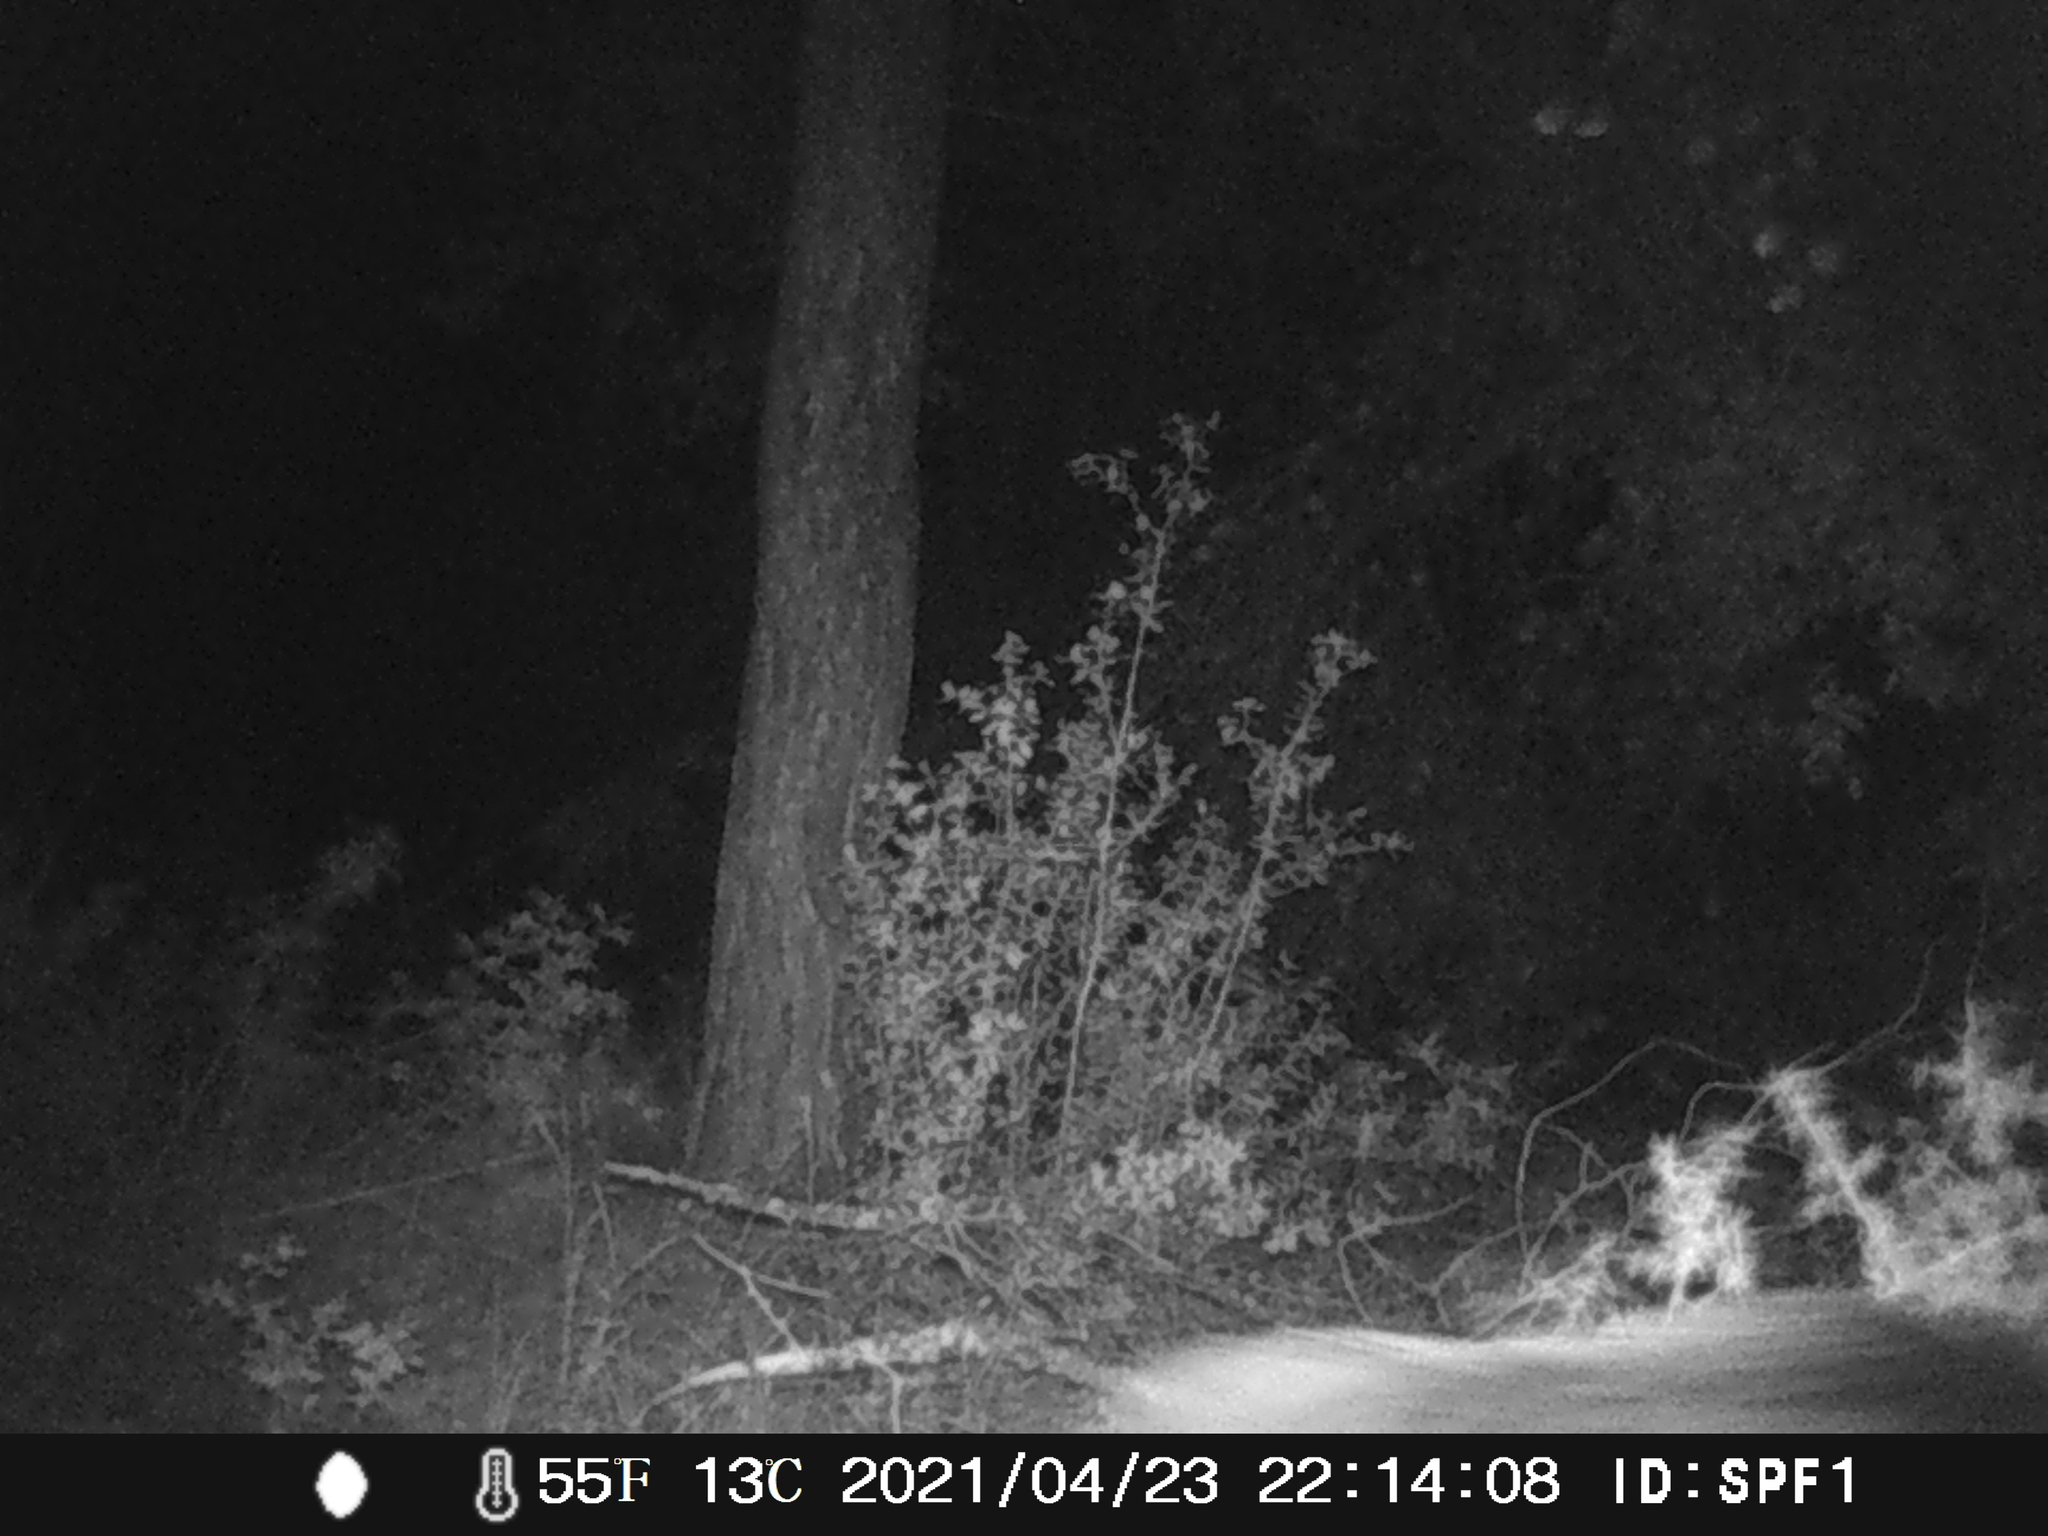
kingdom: Animalia
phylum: Chordata
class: Mammalia
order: Artiodactyla
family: Suidae
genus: Sus
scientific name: Sus scrofa
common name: Wild boar
